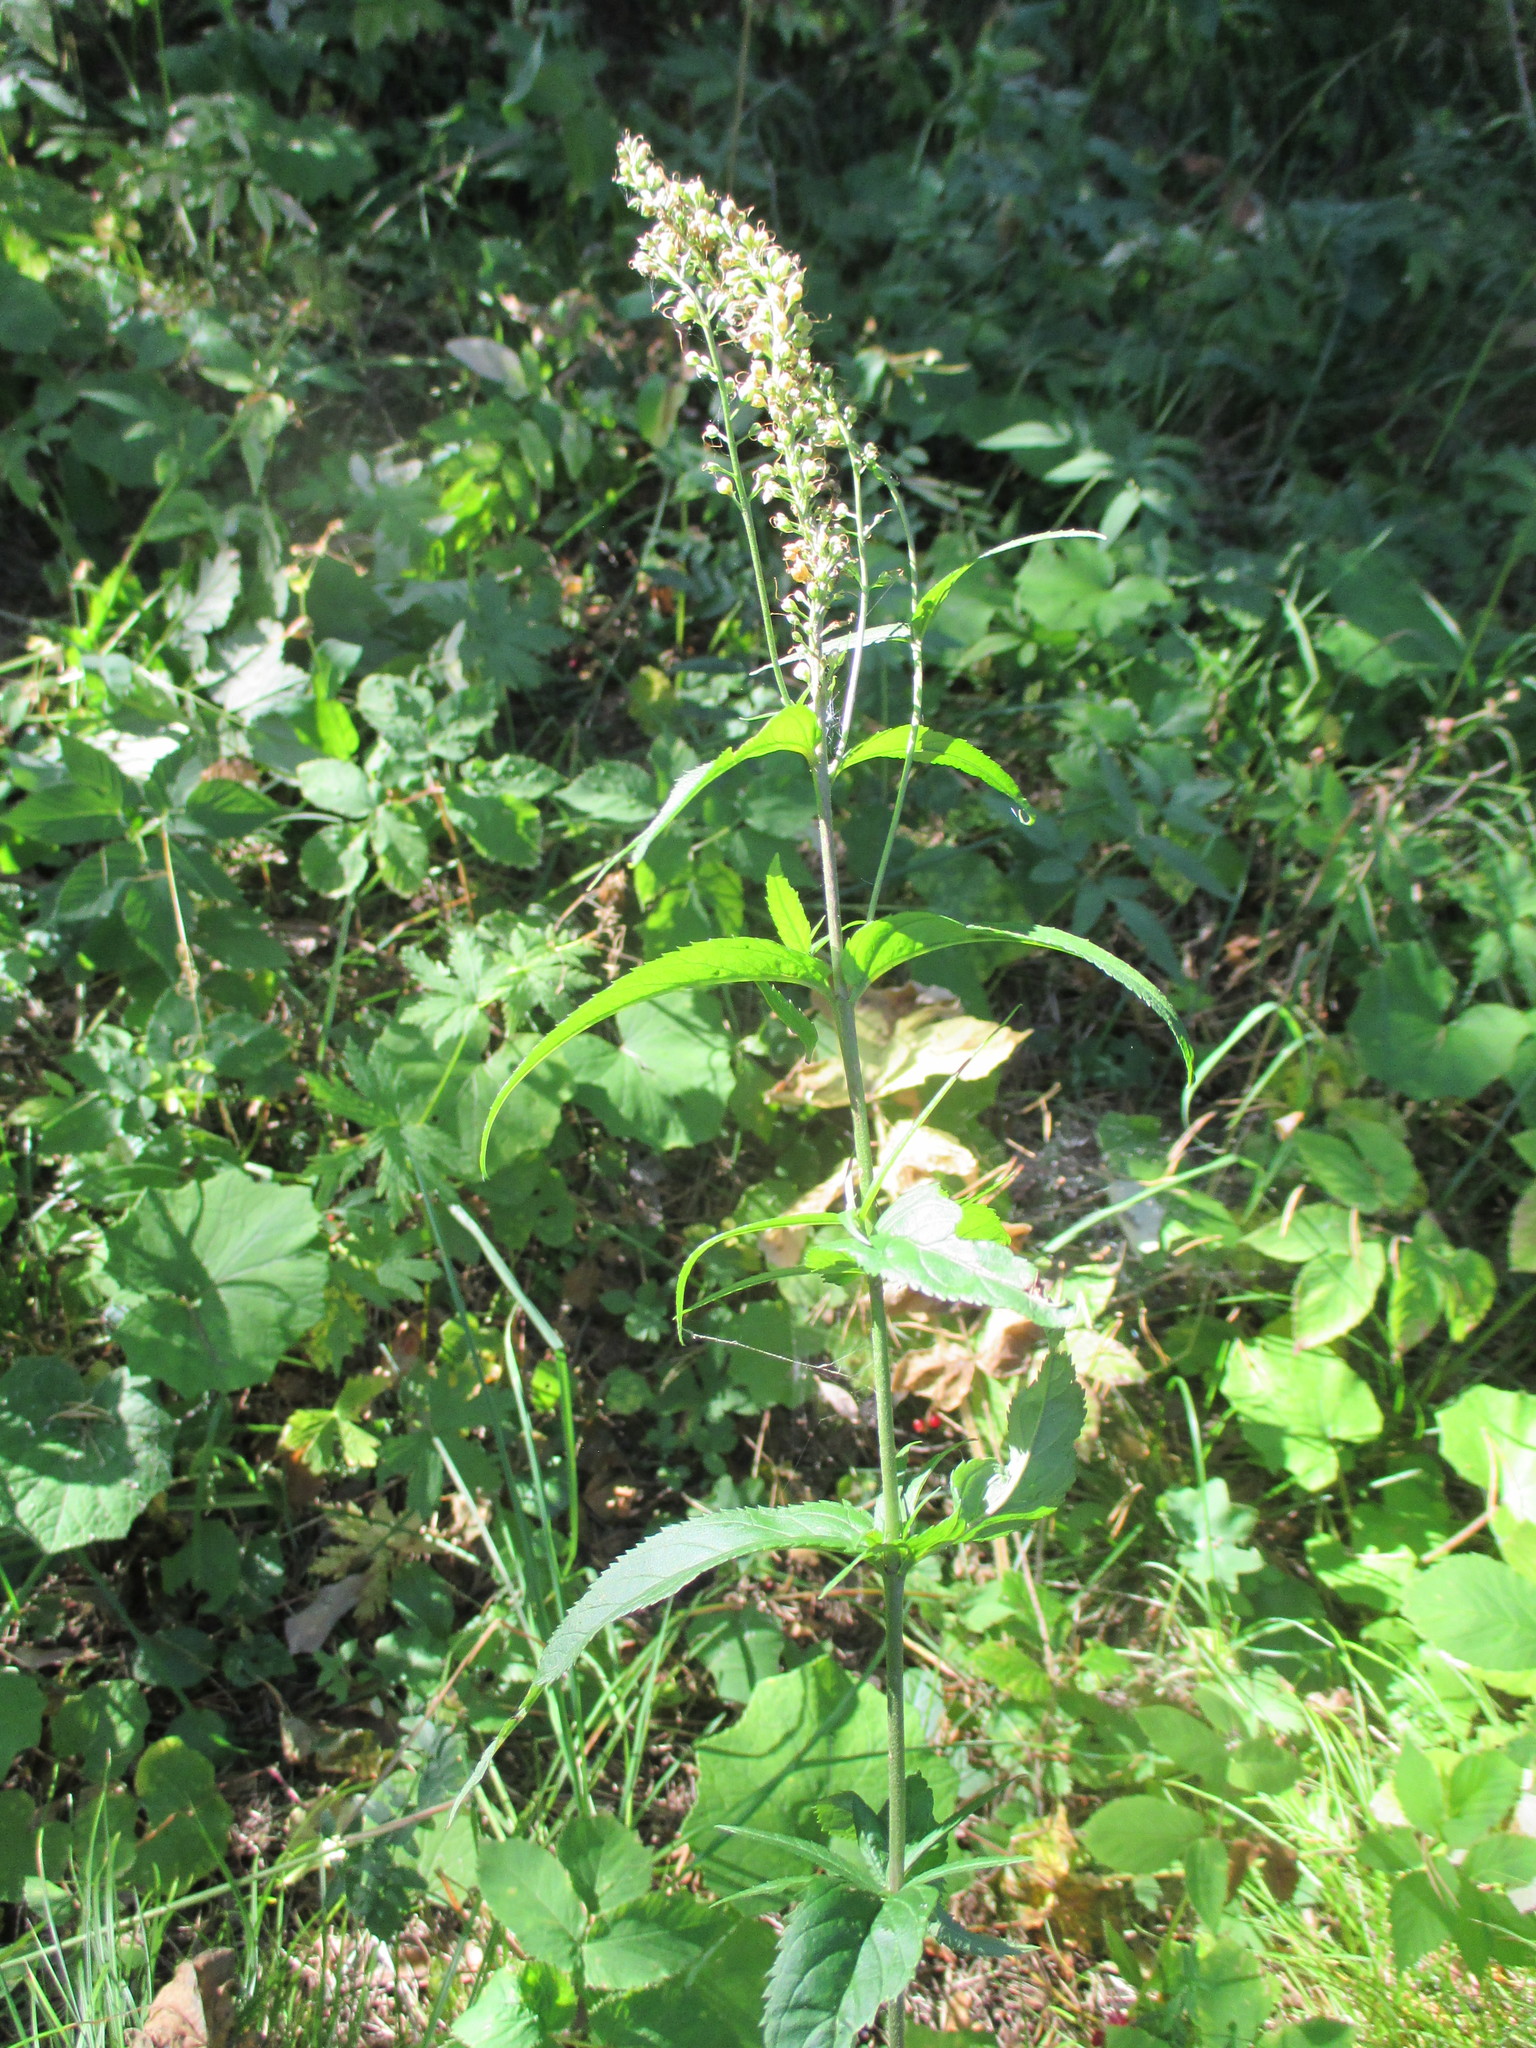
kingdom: Plantae
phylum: Tracheophyta
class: Magnoliopsida
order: Lamiales
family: Plantaginaceae
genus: Veronica
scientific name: Veronica longifolia
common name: Garden speedwell
